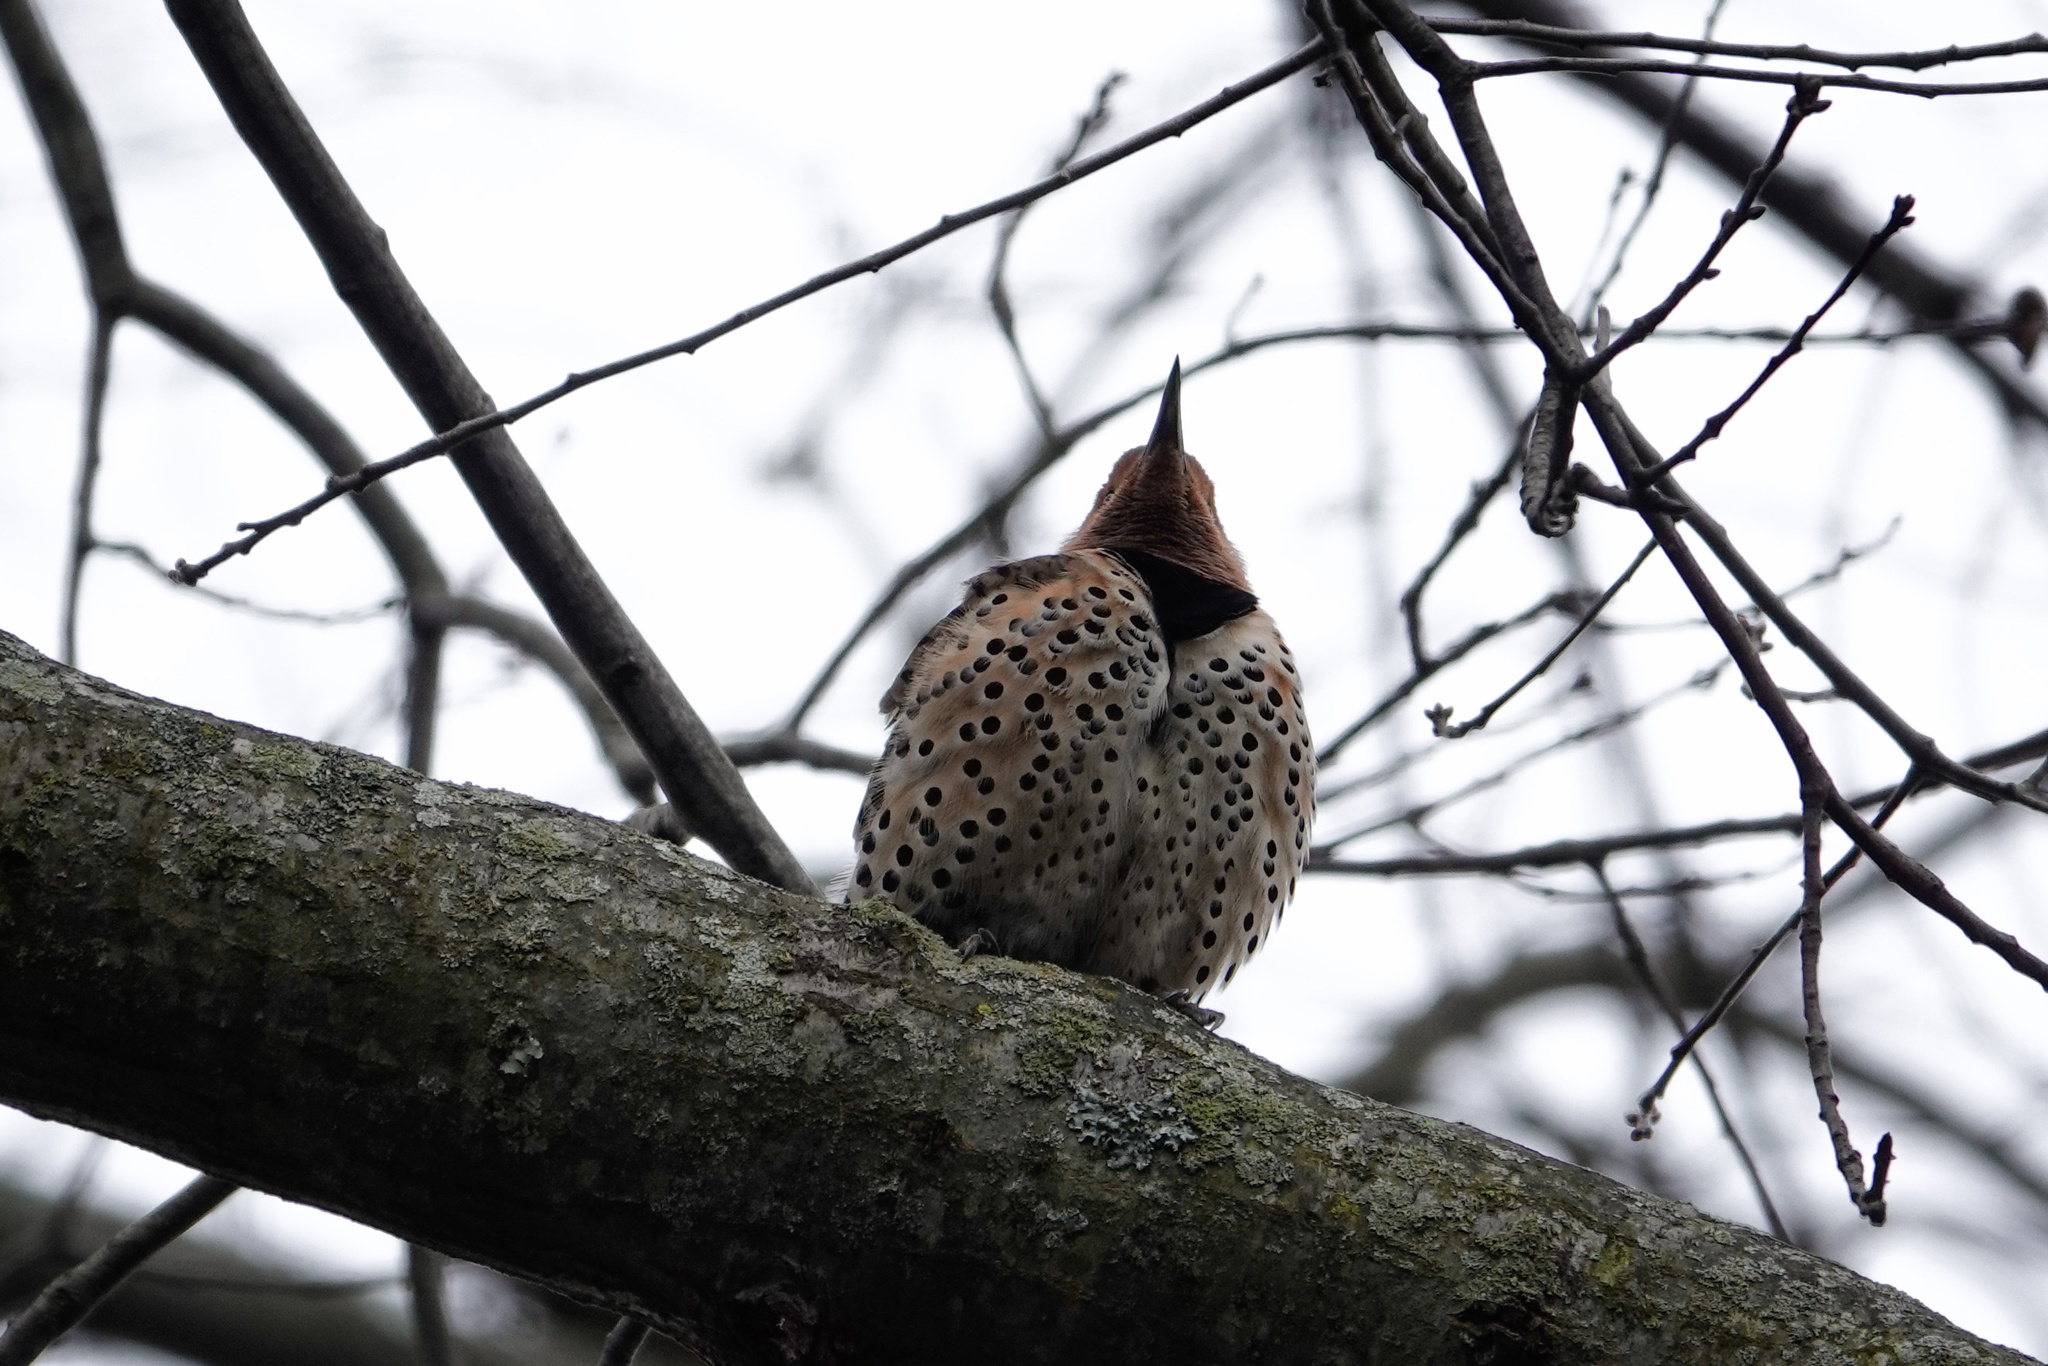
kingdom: Animalia
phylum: Chordata
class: Aves
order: Piciformes
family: Picidae
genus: Colaptes
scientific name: Colaptes auratus
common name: Northern flicker
